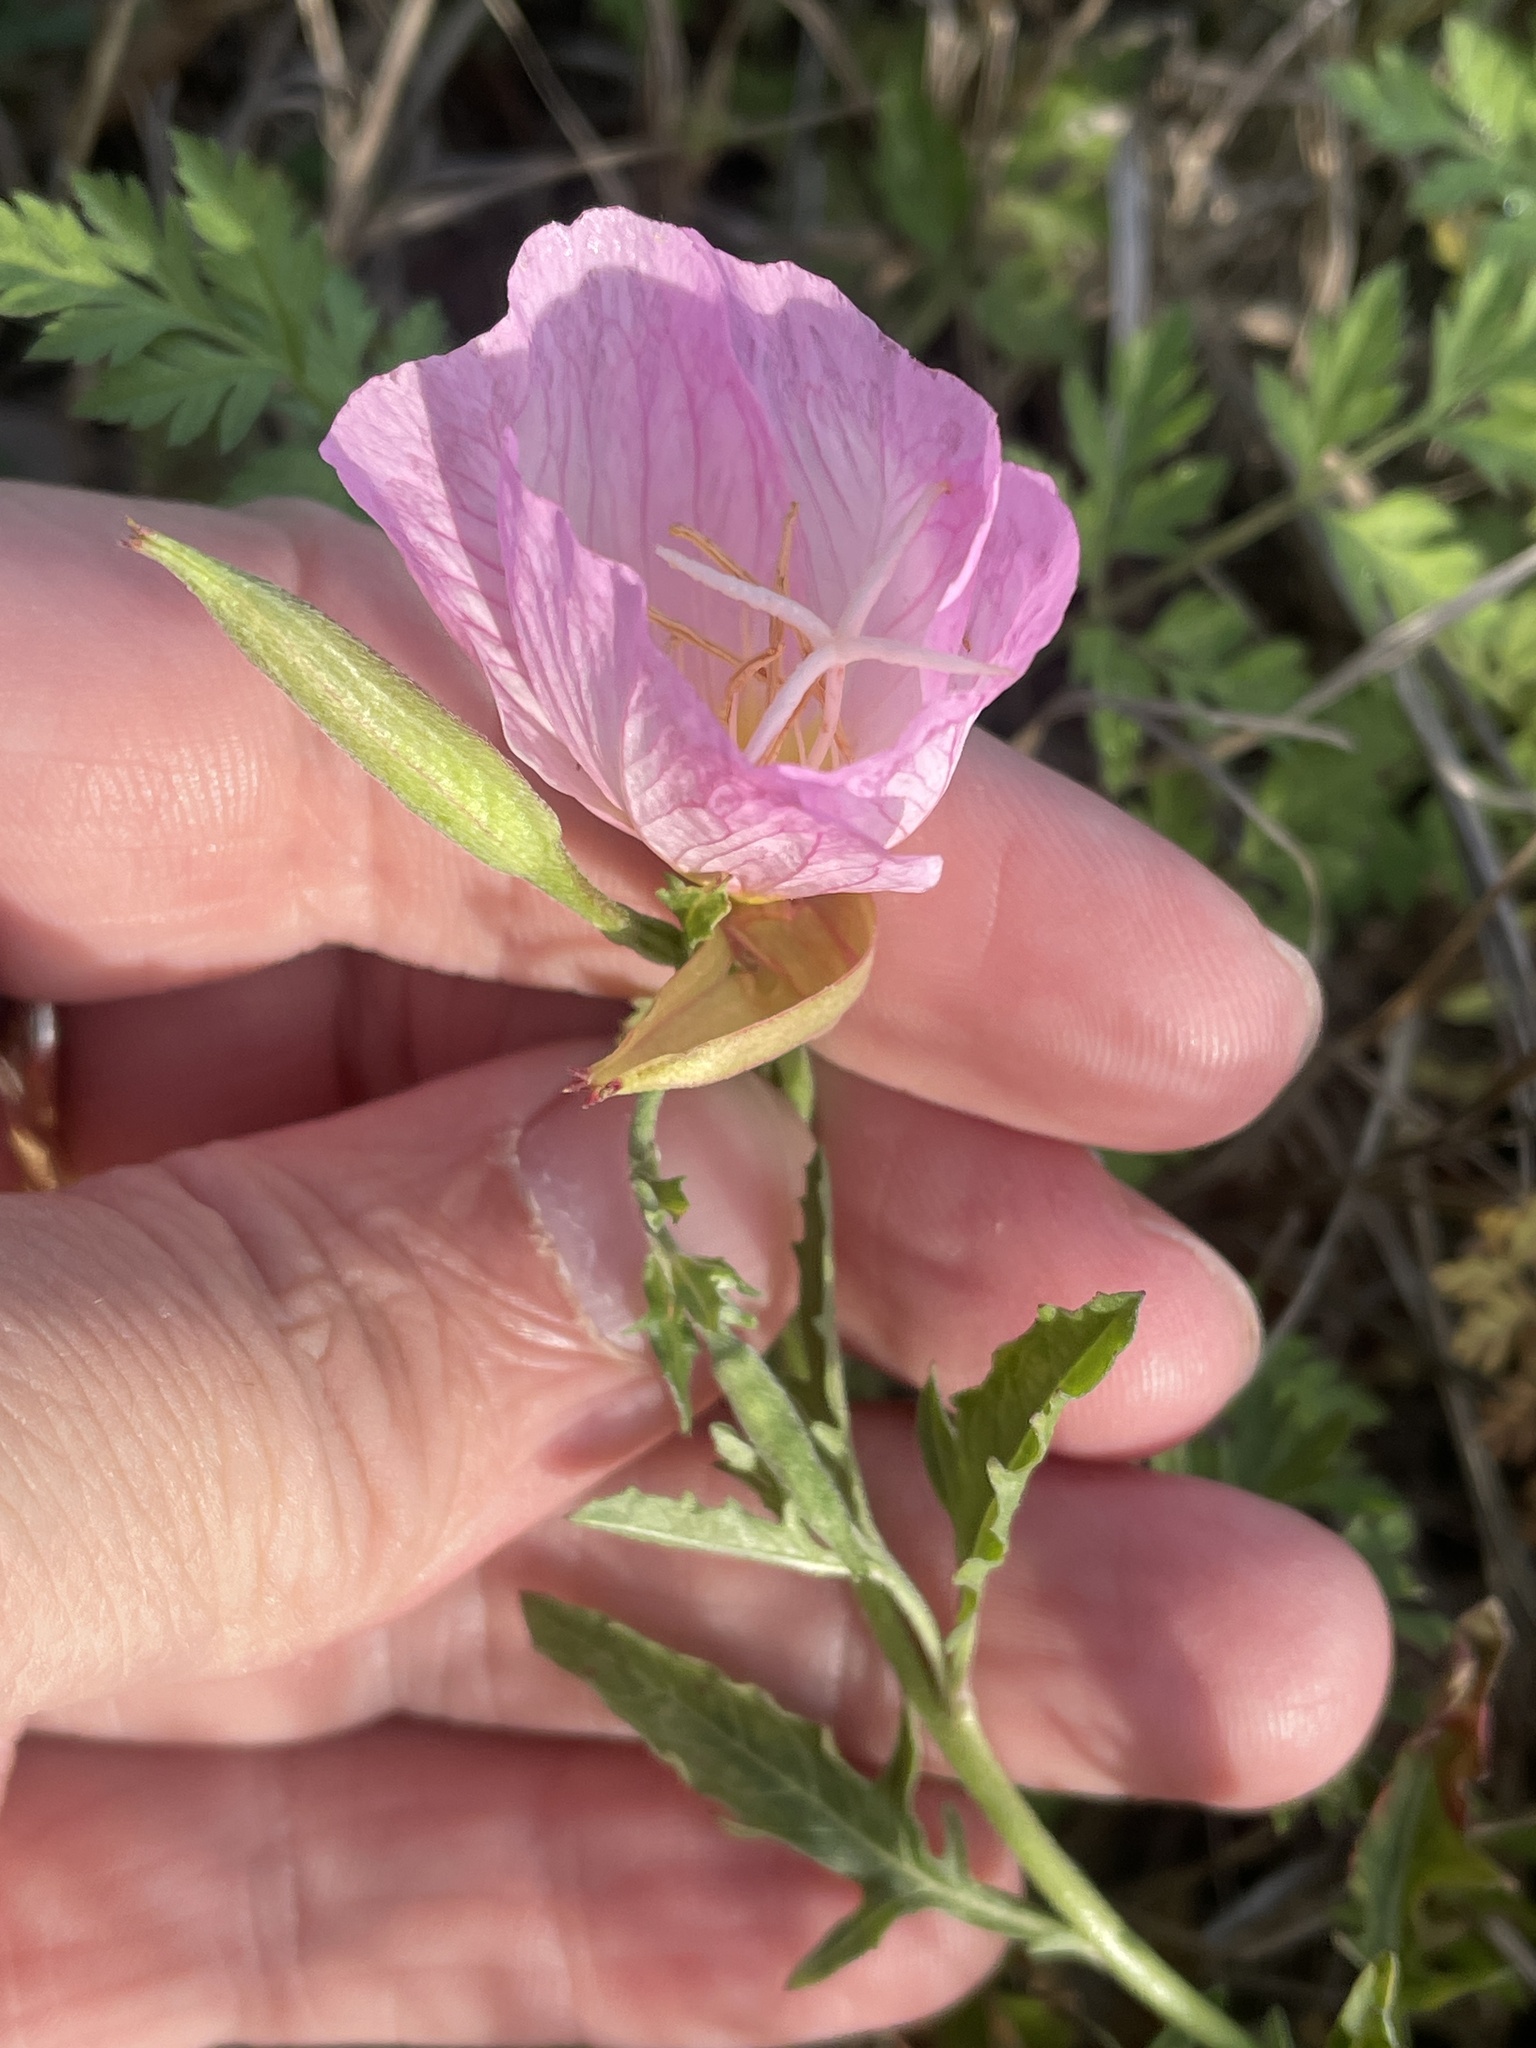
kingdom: Plantae
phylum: Tracheophyta
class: Magnoliopsida
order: Myrtales
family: Onagraceae
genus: Oenothera
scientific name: Oenothera speciosa
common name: White evening-primrose
